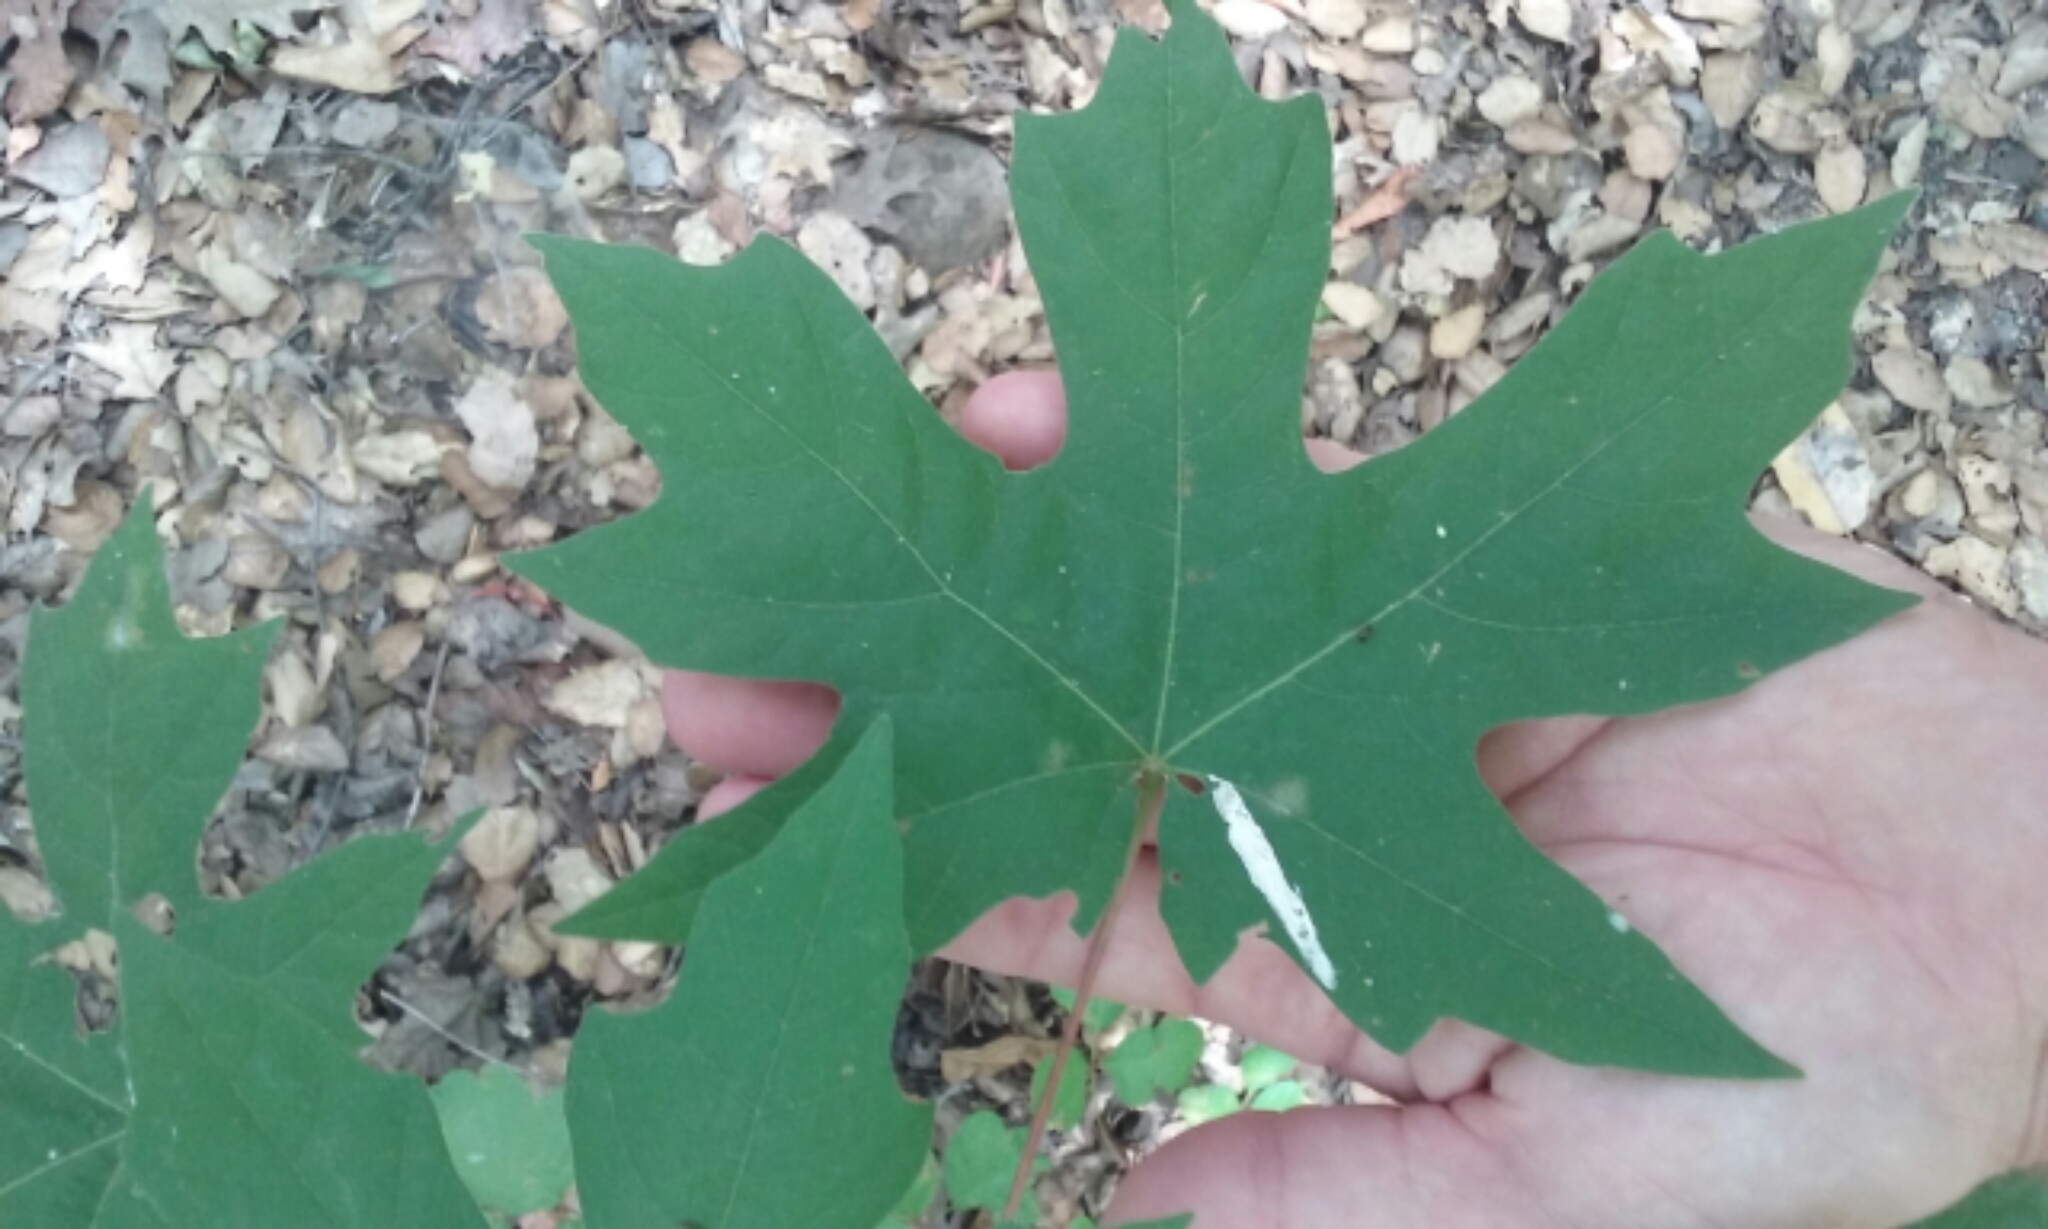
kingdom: Plantae
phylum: Tracheophyta
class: Magnoliopsida
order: Sapindales
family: Sapindaceae
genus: Acer
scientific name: Acer macrophyllum
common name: Oregon maple
